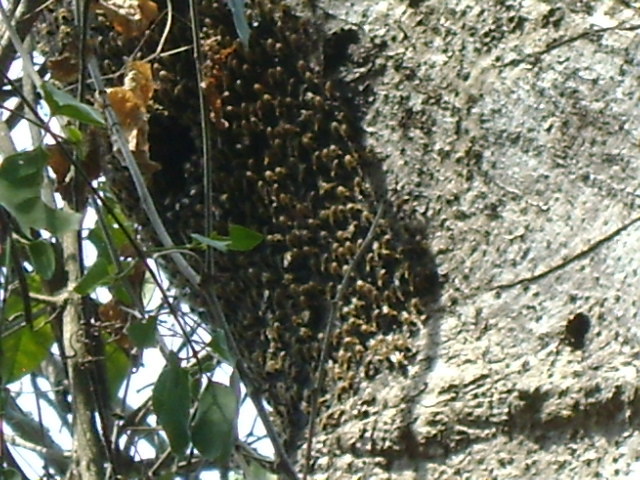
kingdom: Animalia
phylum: Arthropoda
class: Insecta
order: Hymenoptera
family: Apidae
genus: Apis
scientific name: Apis mellifera
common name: Honey bee
